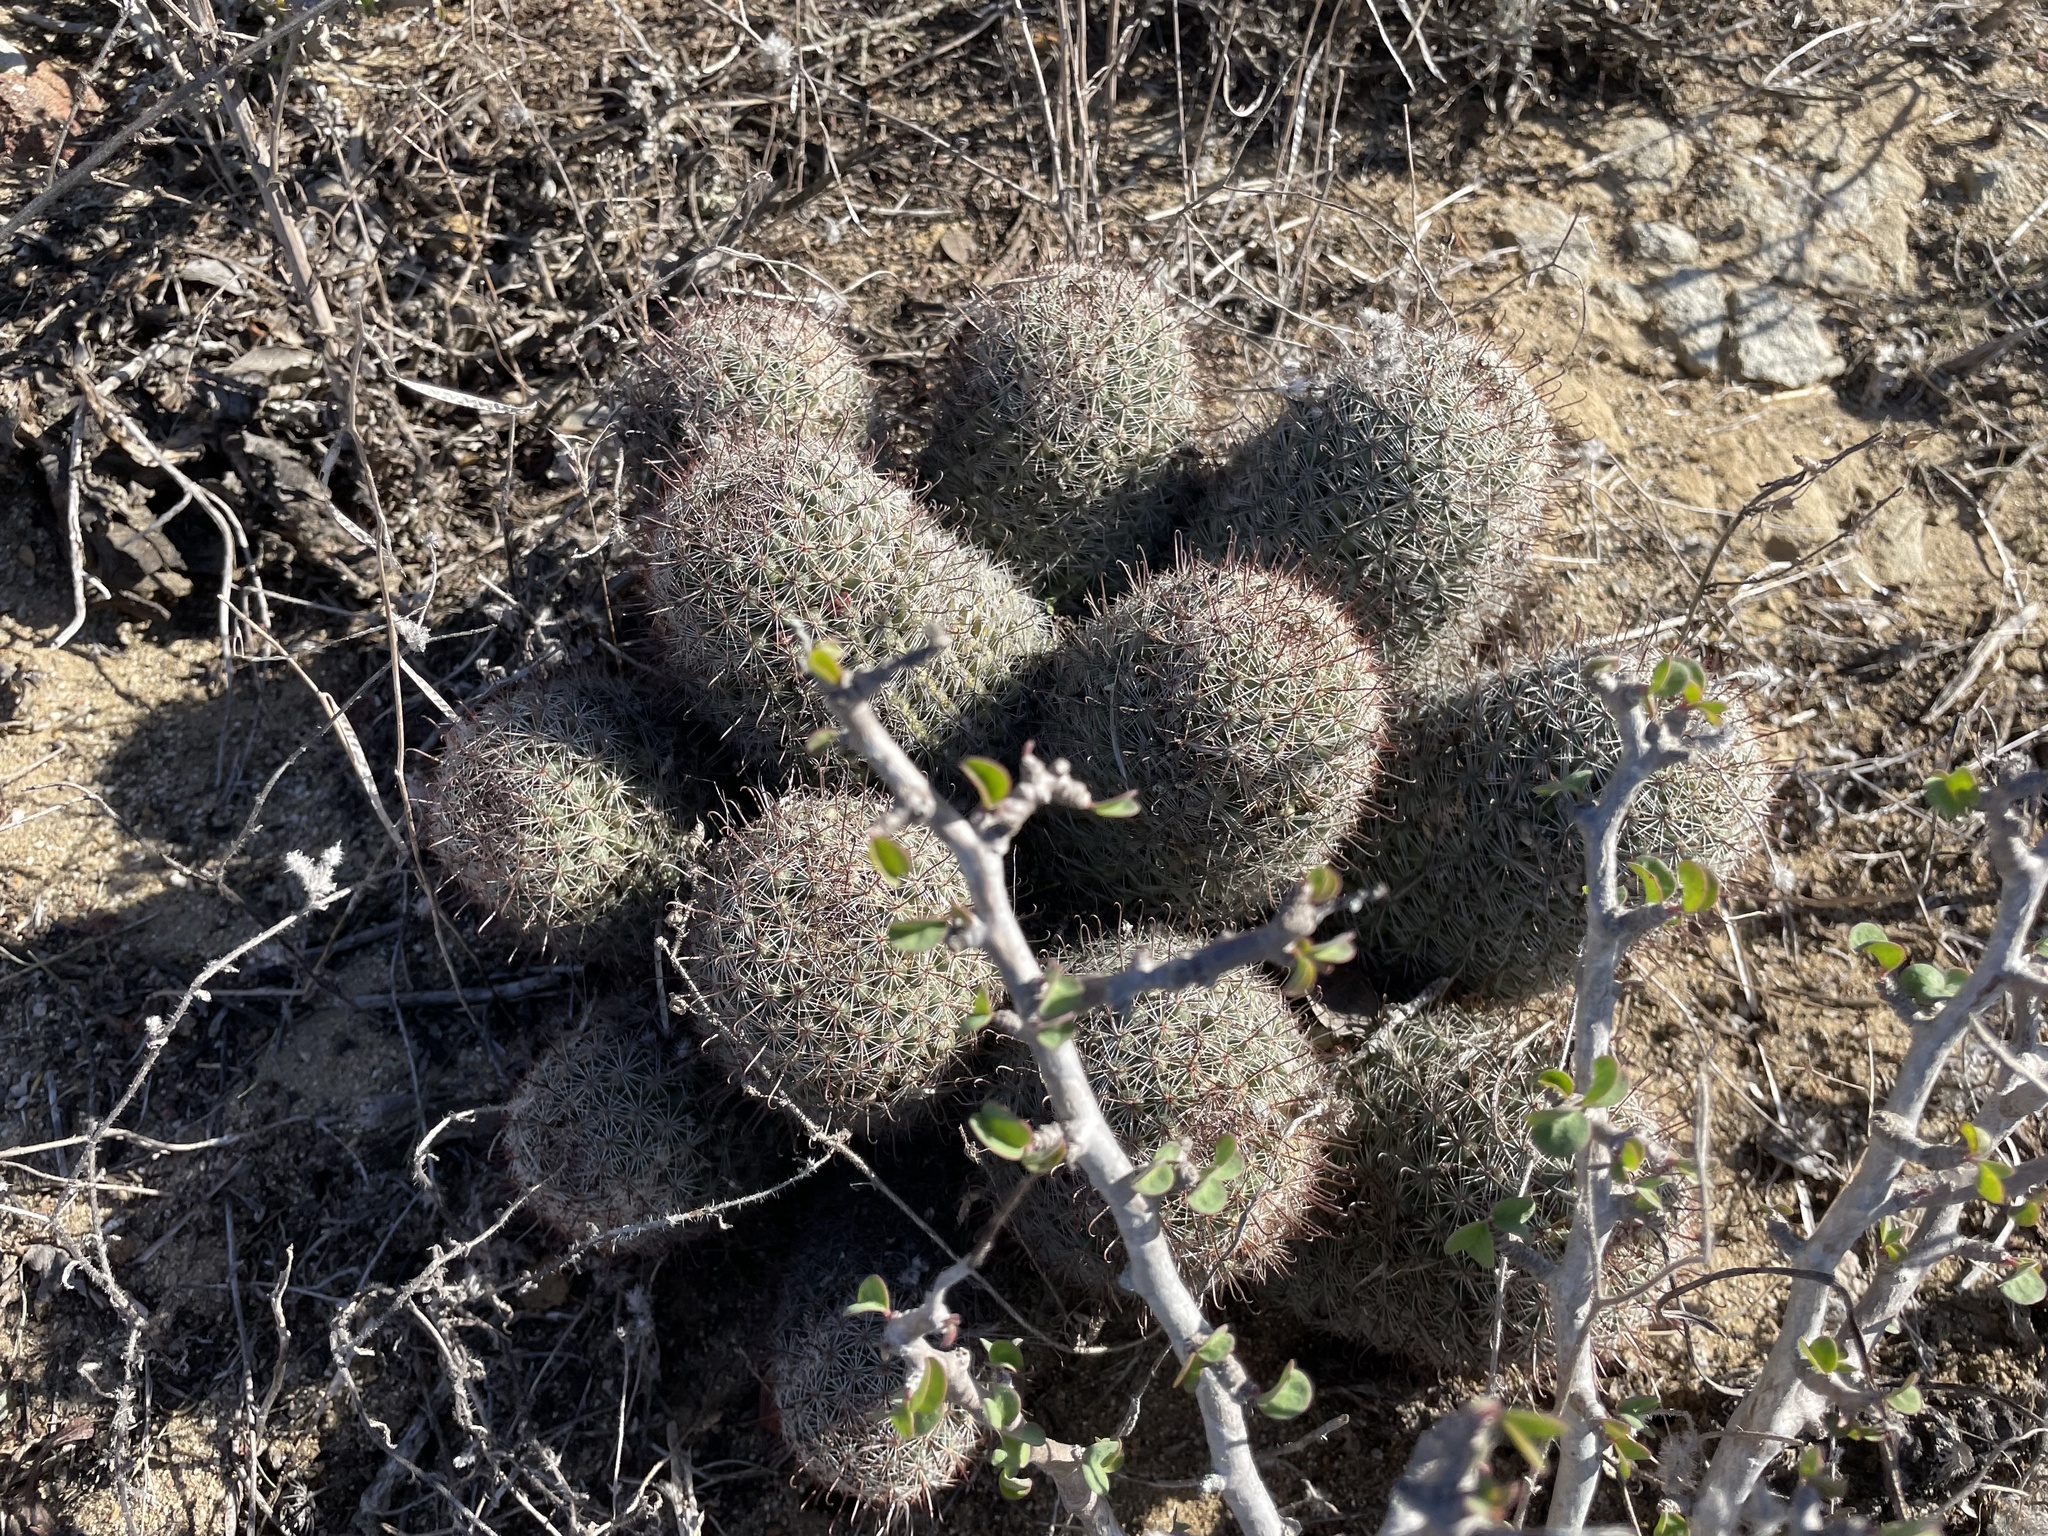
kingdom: Plantae
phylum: Tracheophyta
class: Magnoliopsida
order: Caryophyllales
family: Cactaceae
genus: Cochemiea
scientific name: Cochemiea dioica
